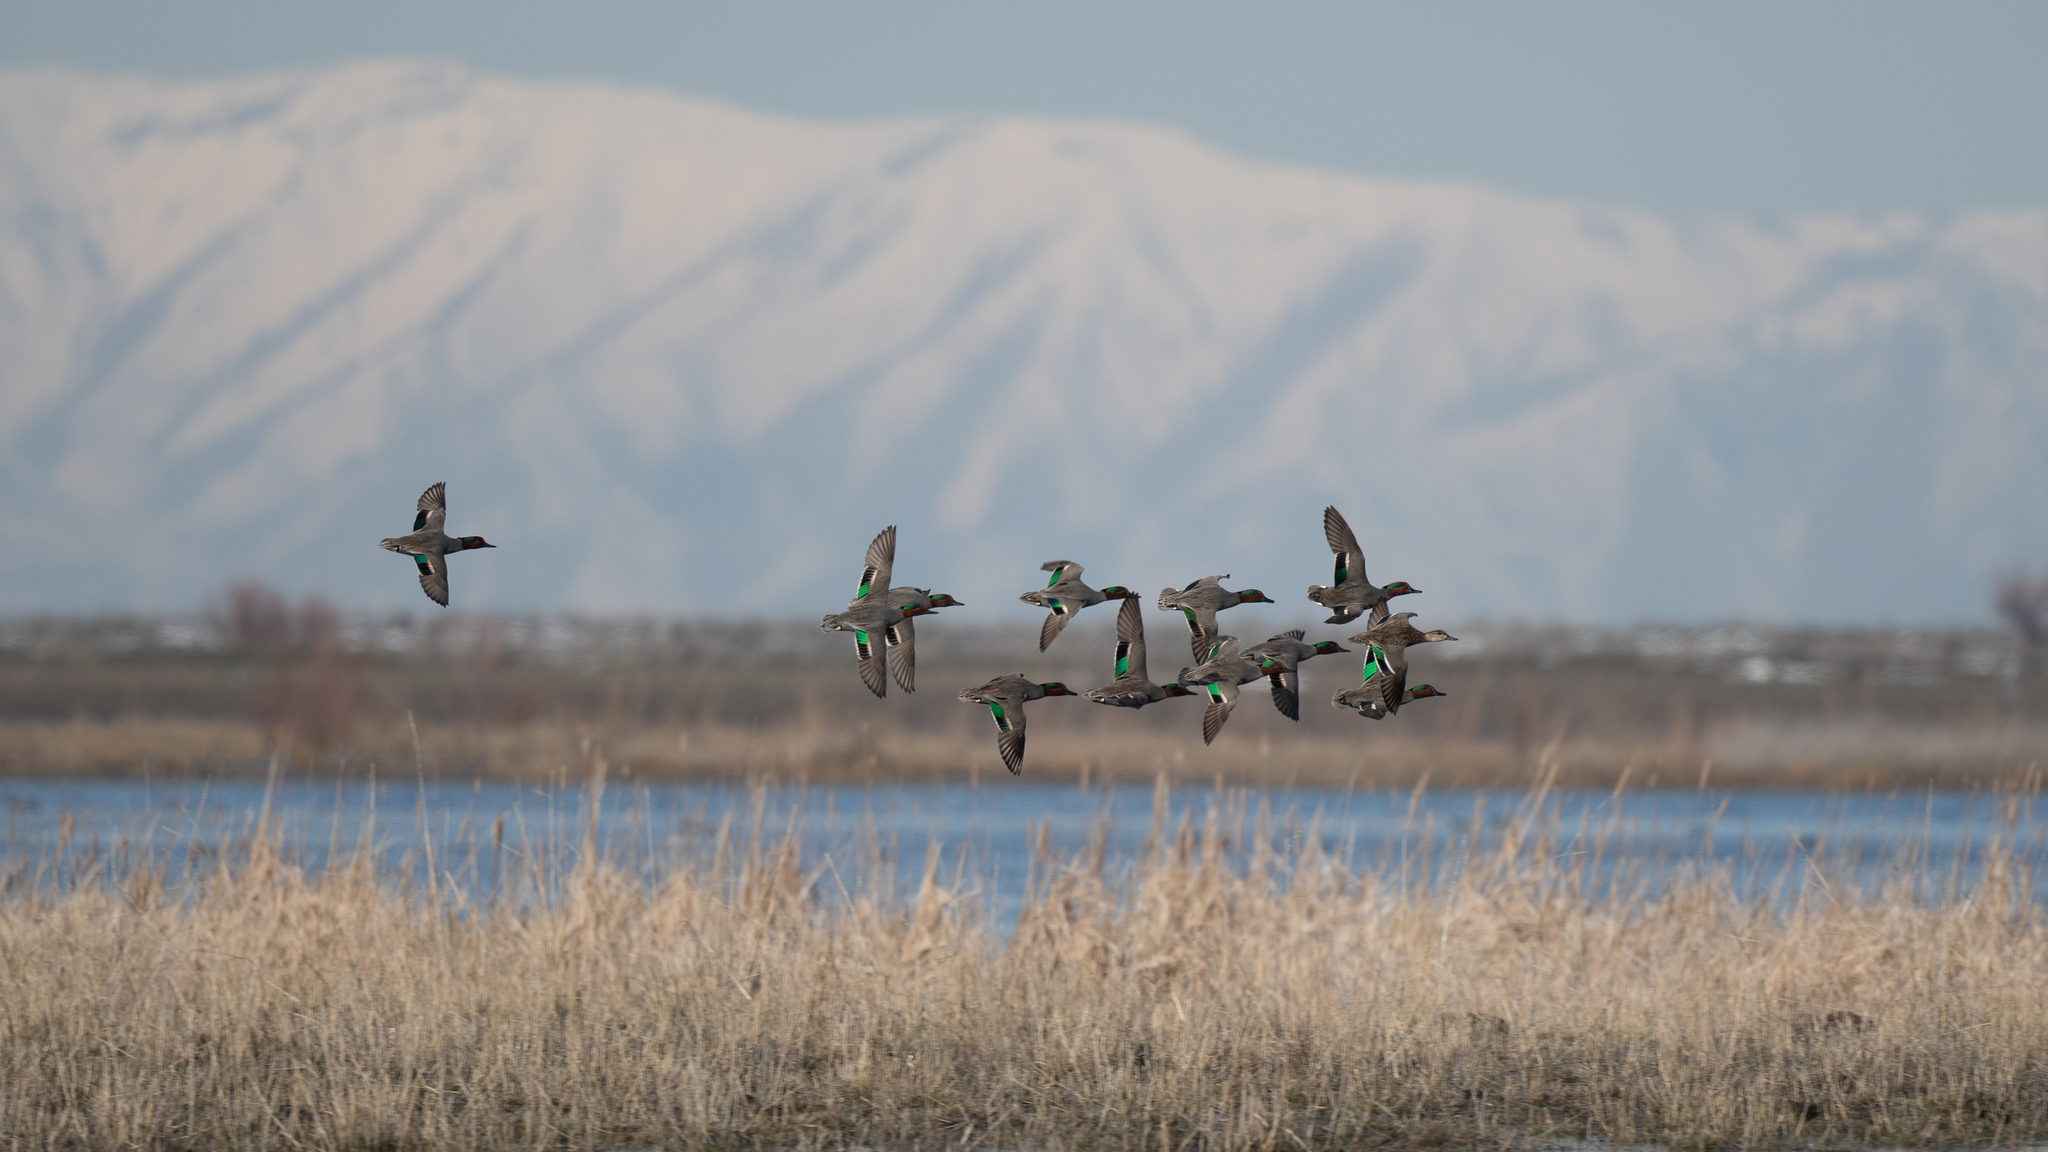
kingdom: Animalia
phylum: Chordata
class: Aves
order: Anseriformes
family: Anatidae
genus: Anas
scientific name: Anas crecca
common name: Eurasian teal
